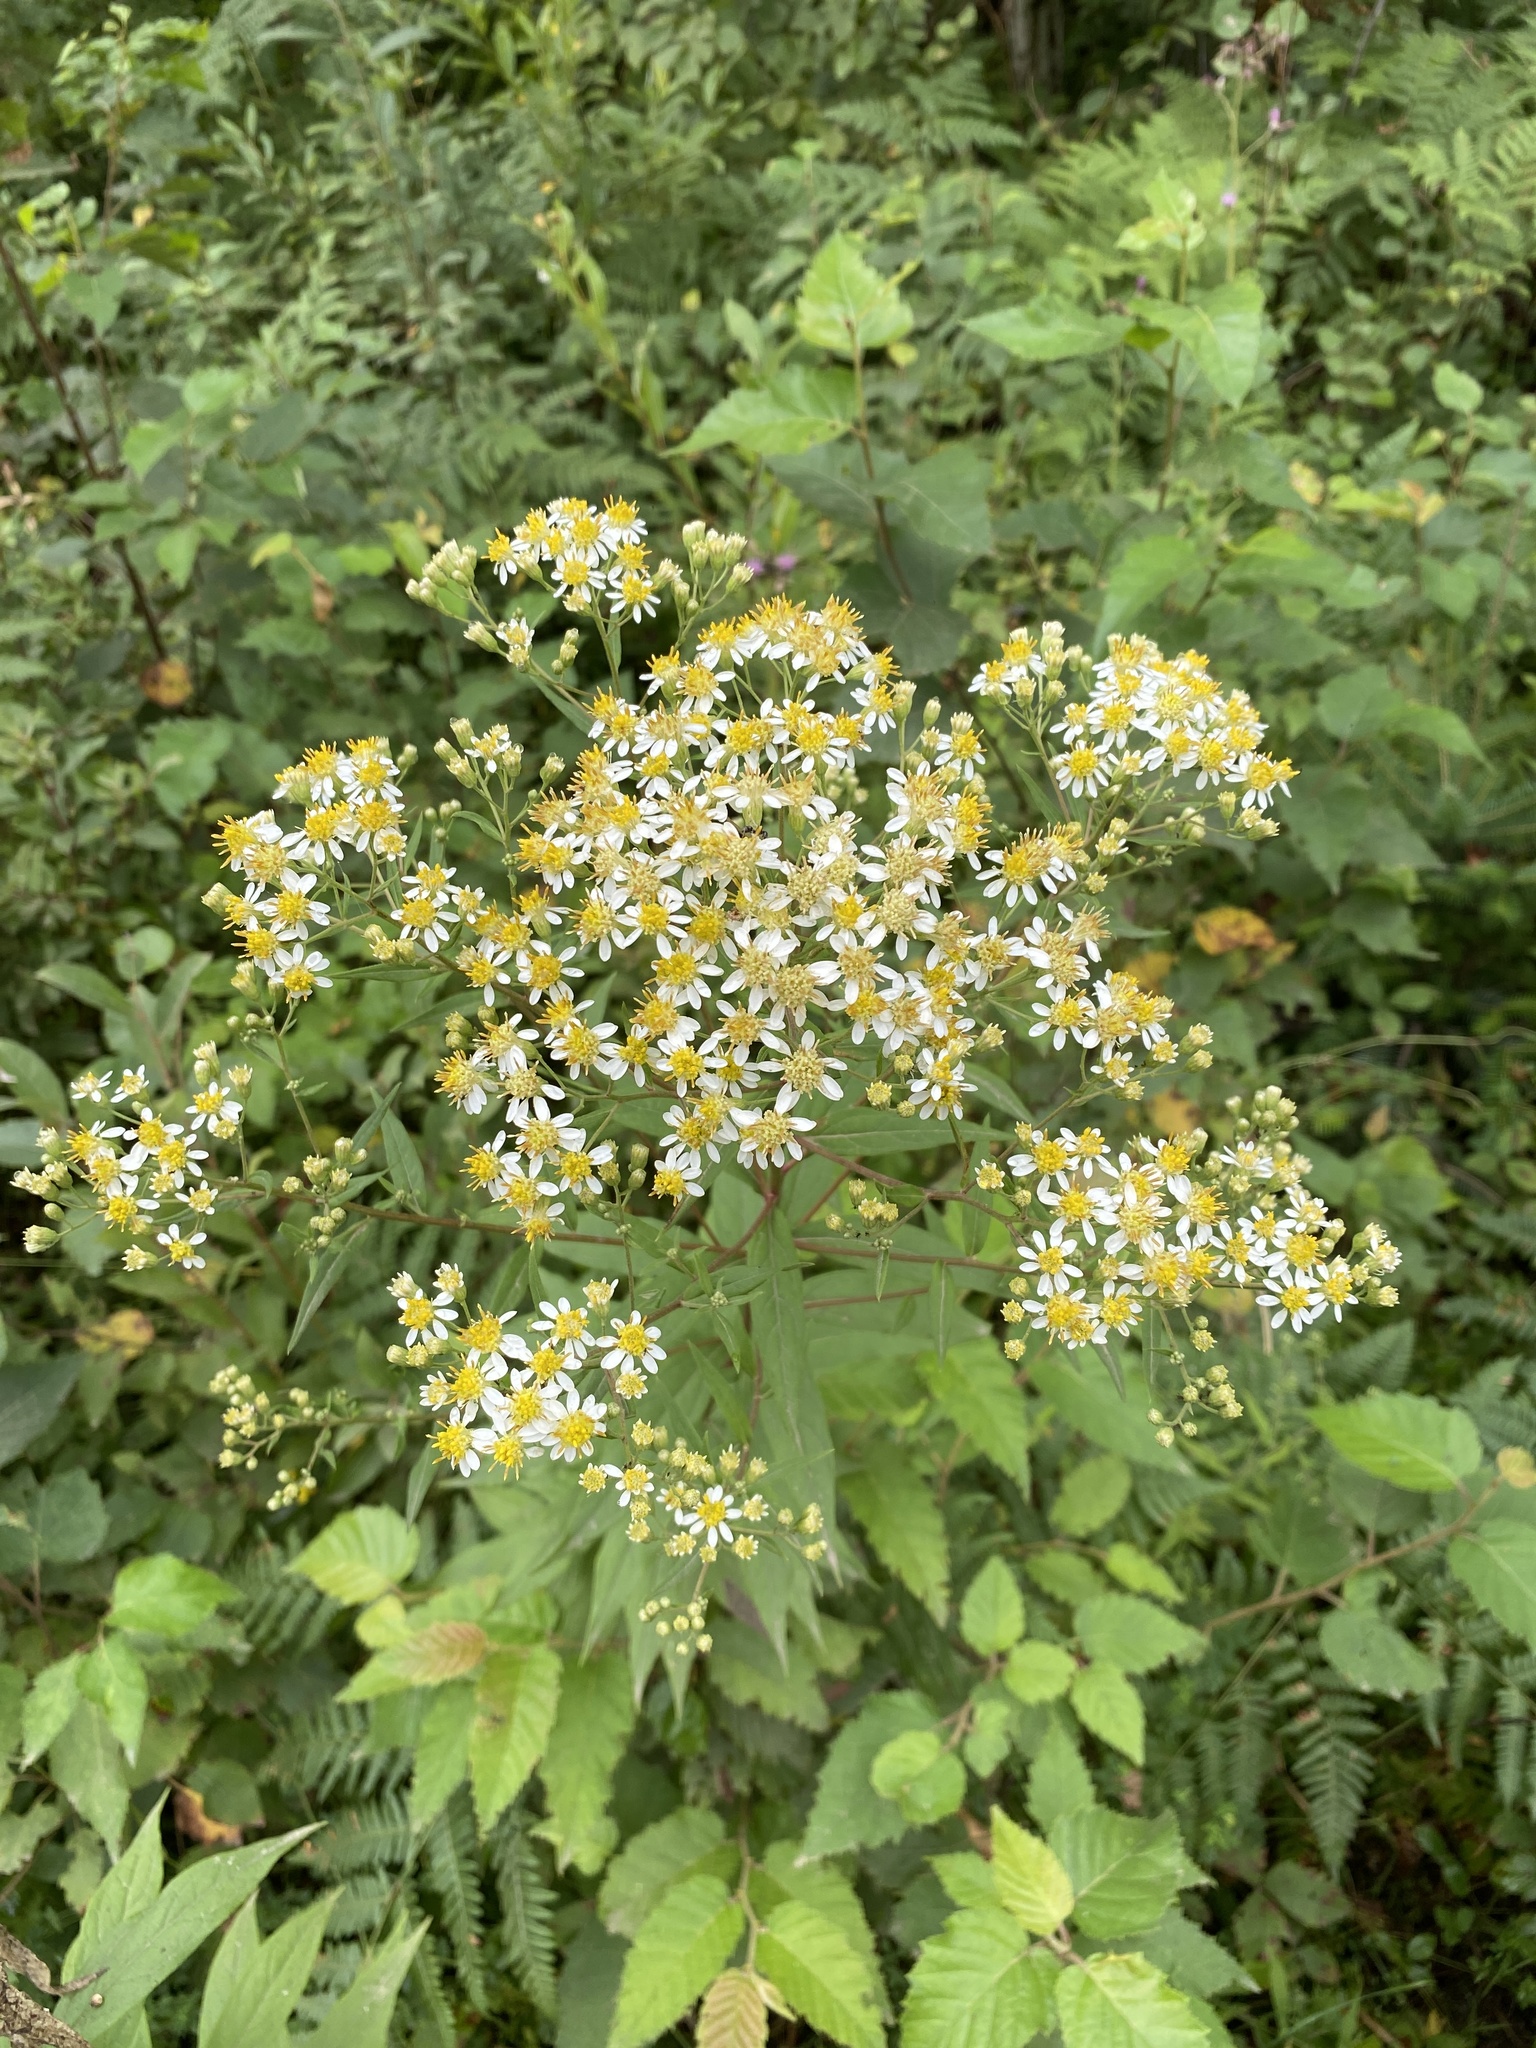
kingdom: Plantae
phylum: Tracheophyta
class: Magnoliopsida
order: Asterales
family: Asteraceae
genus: Doellingeria
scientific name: Doellingeria umbellata
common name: Flat-top white aster
